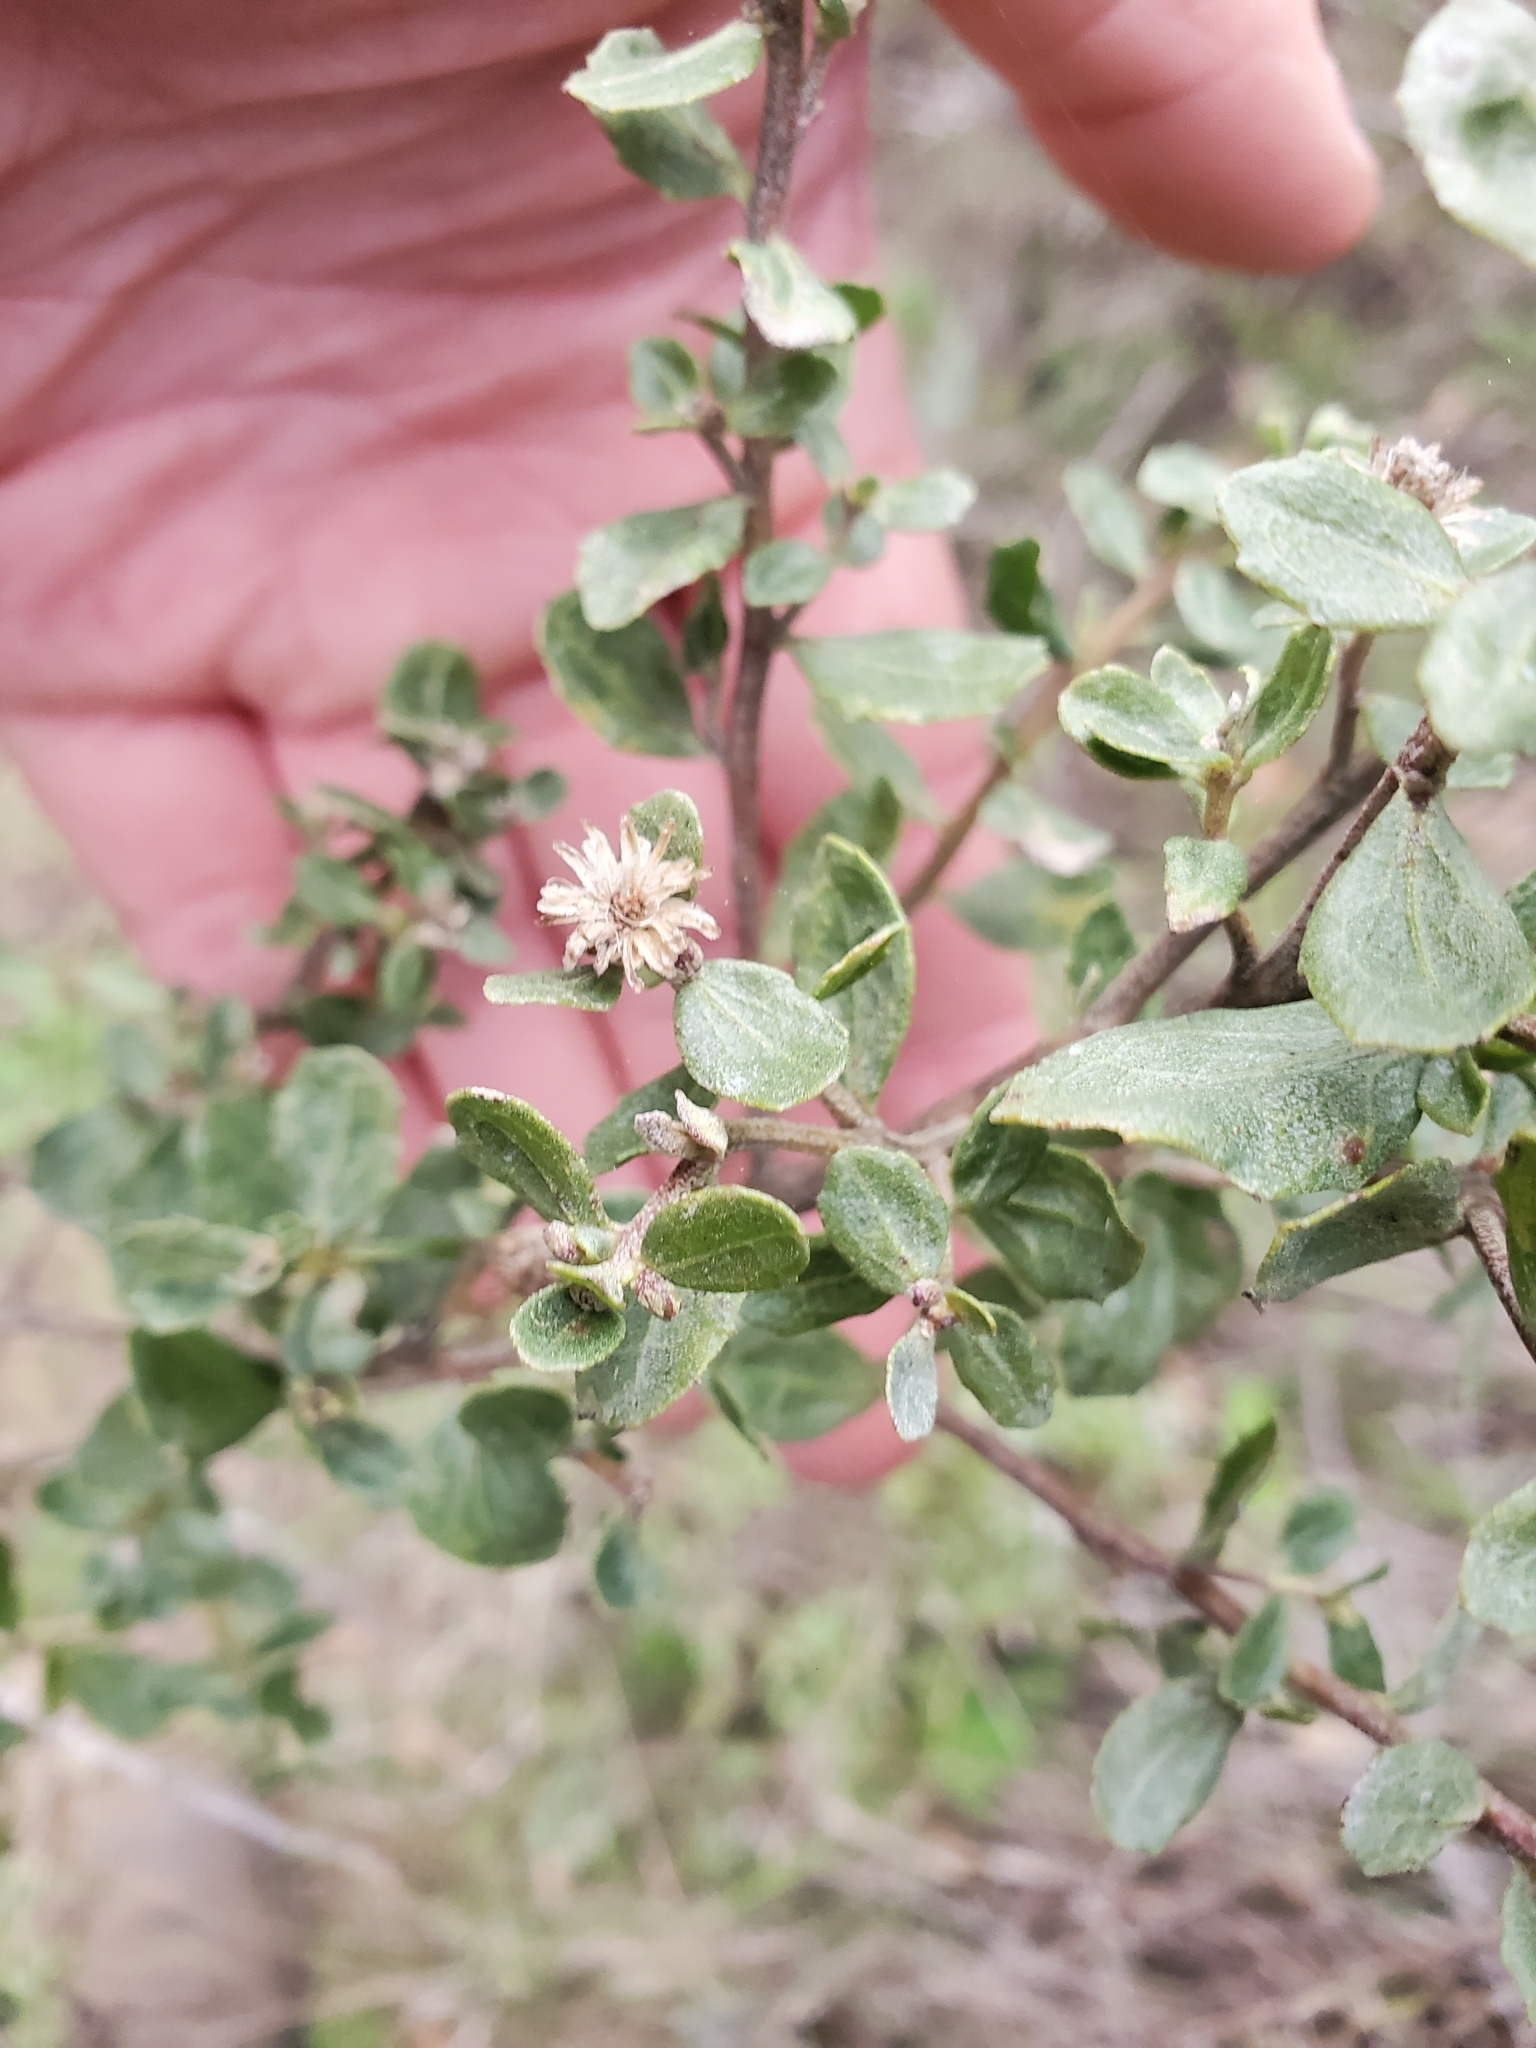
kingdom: Plantae
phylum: Tracheophyta
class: Magnoliopsida
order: Asterales
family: Asteraceae
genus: Baccharis
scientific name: Baccharis pilularis
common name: Coyotebrush
